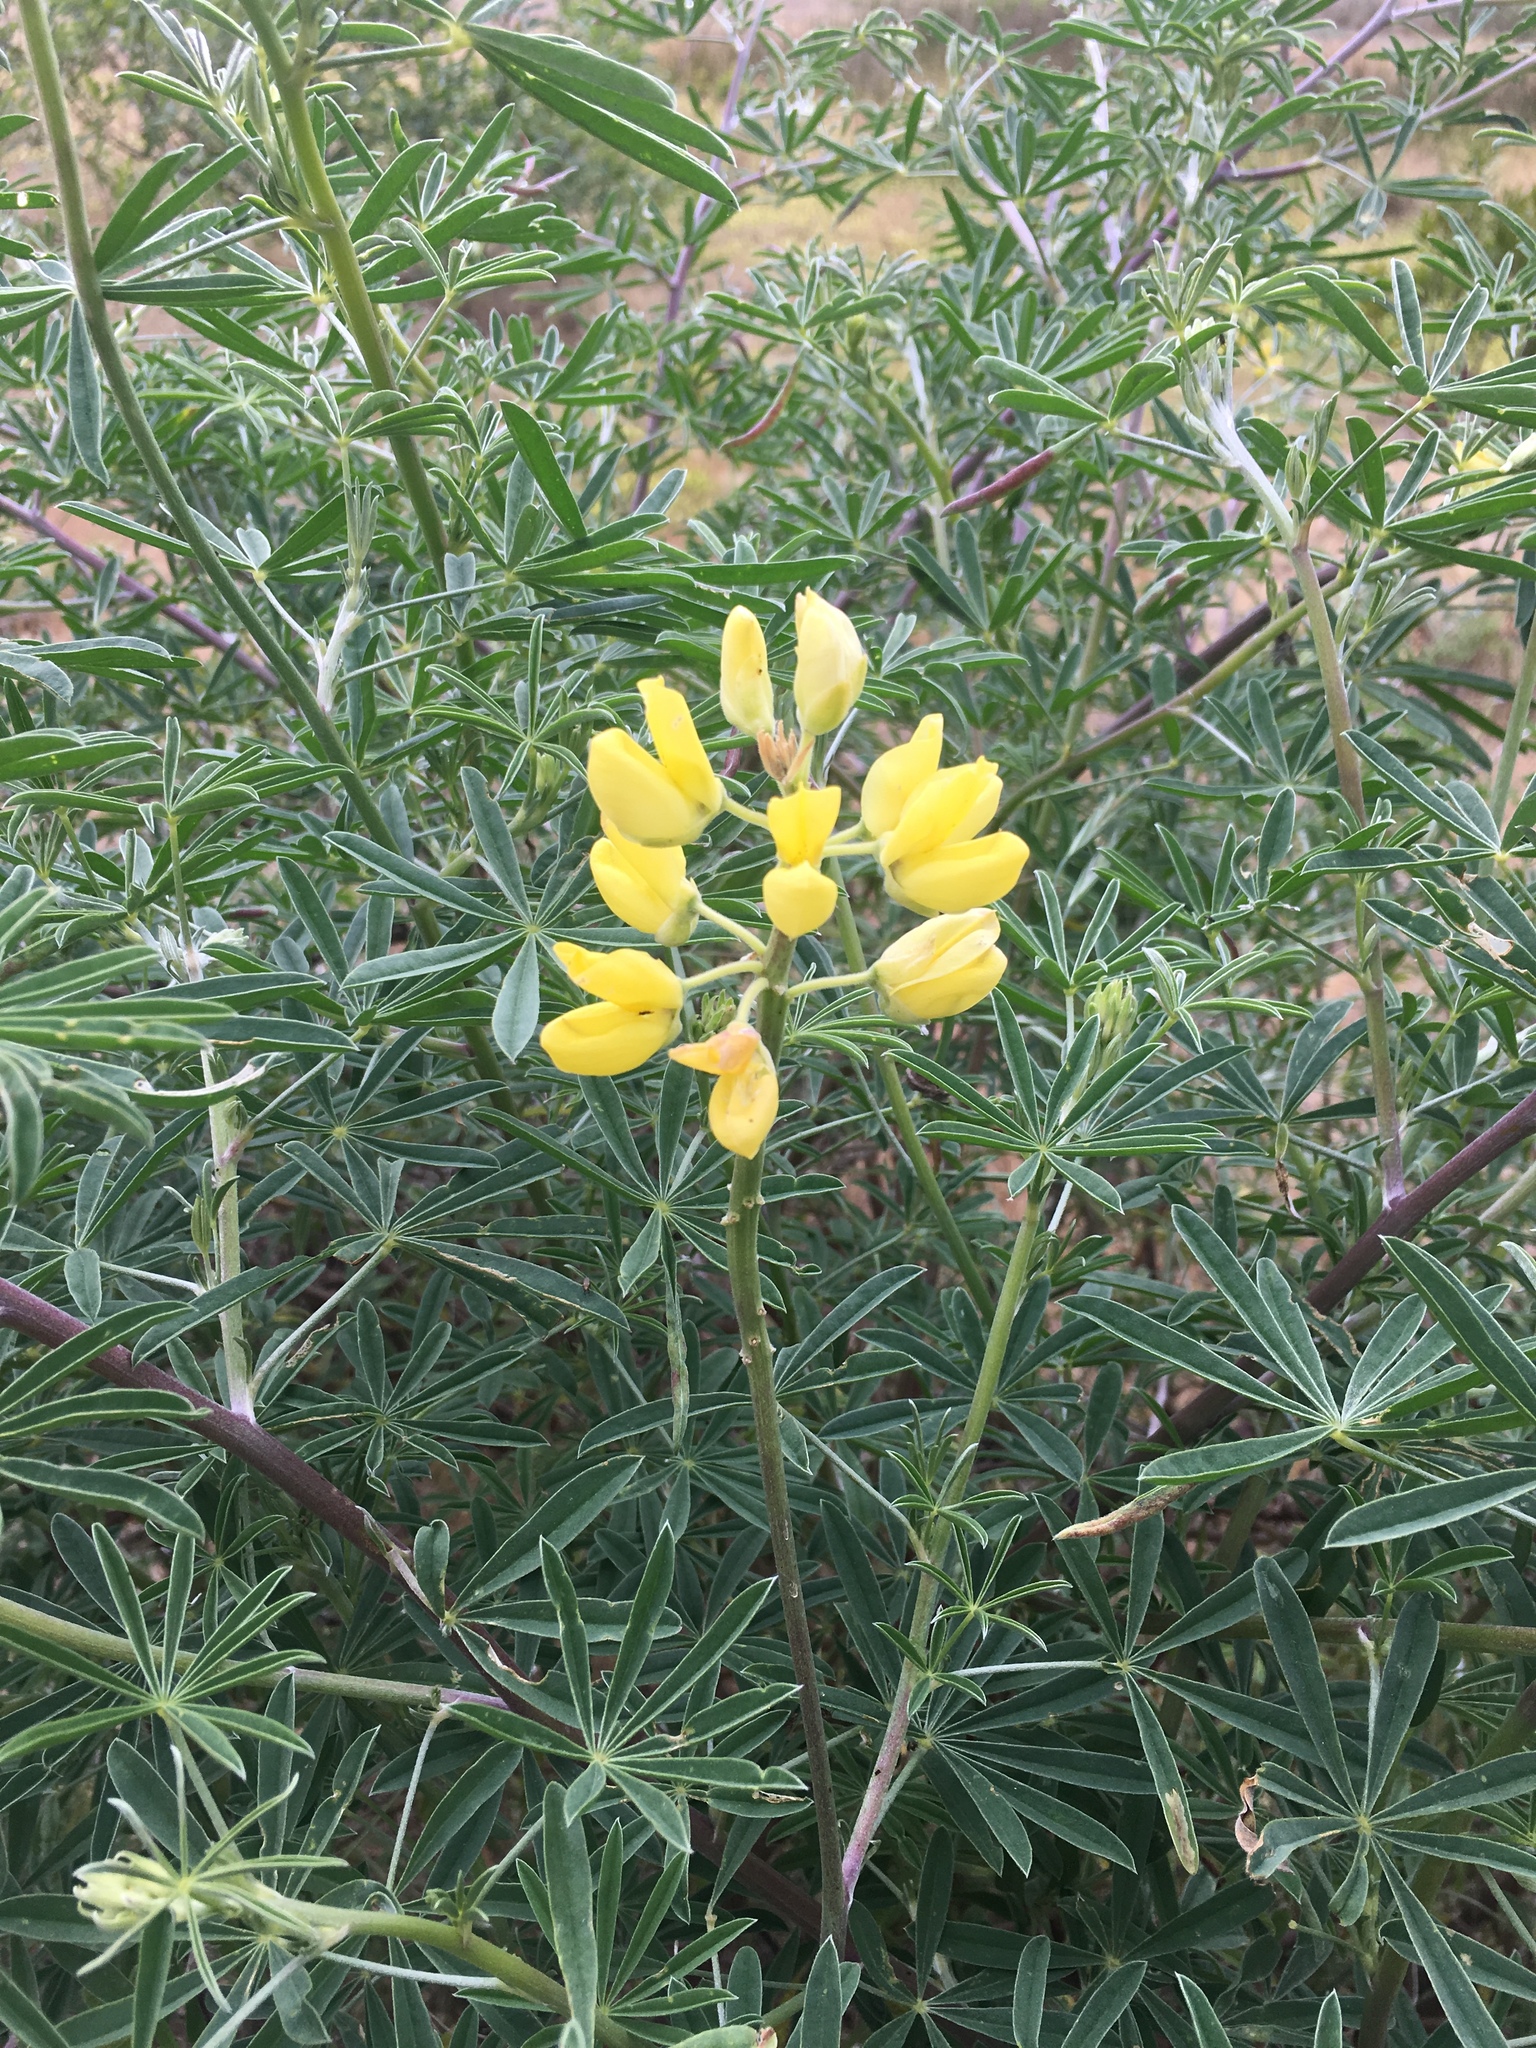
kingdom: Plantae
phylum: Tracheophyta
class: Magnoliopsida
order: Fabales
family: Fabaceae
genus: Lupinus
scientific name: Lupinus arboreus
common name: Yellow bush lupine
